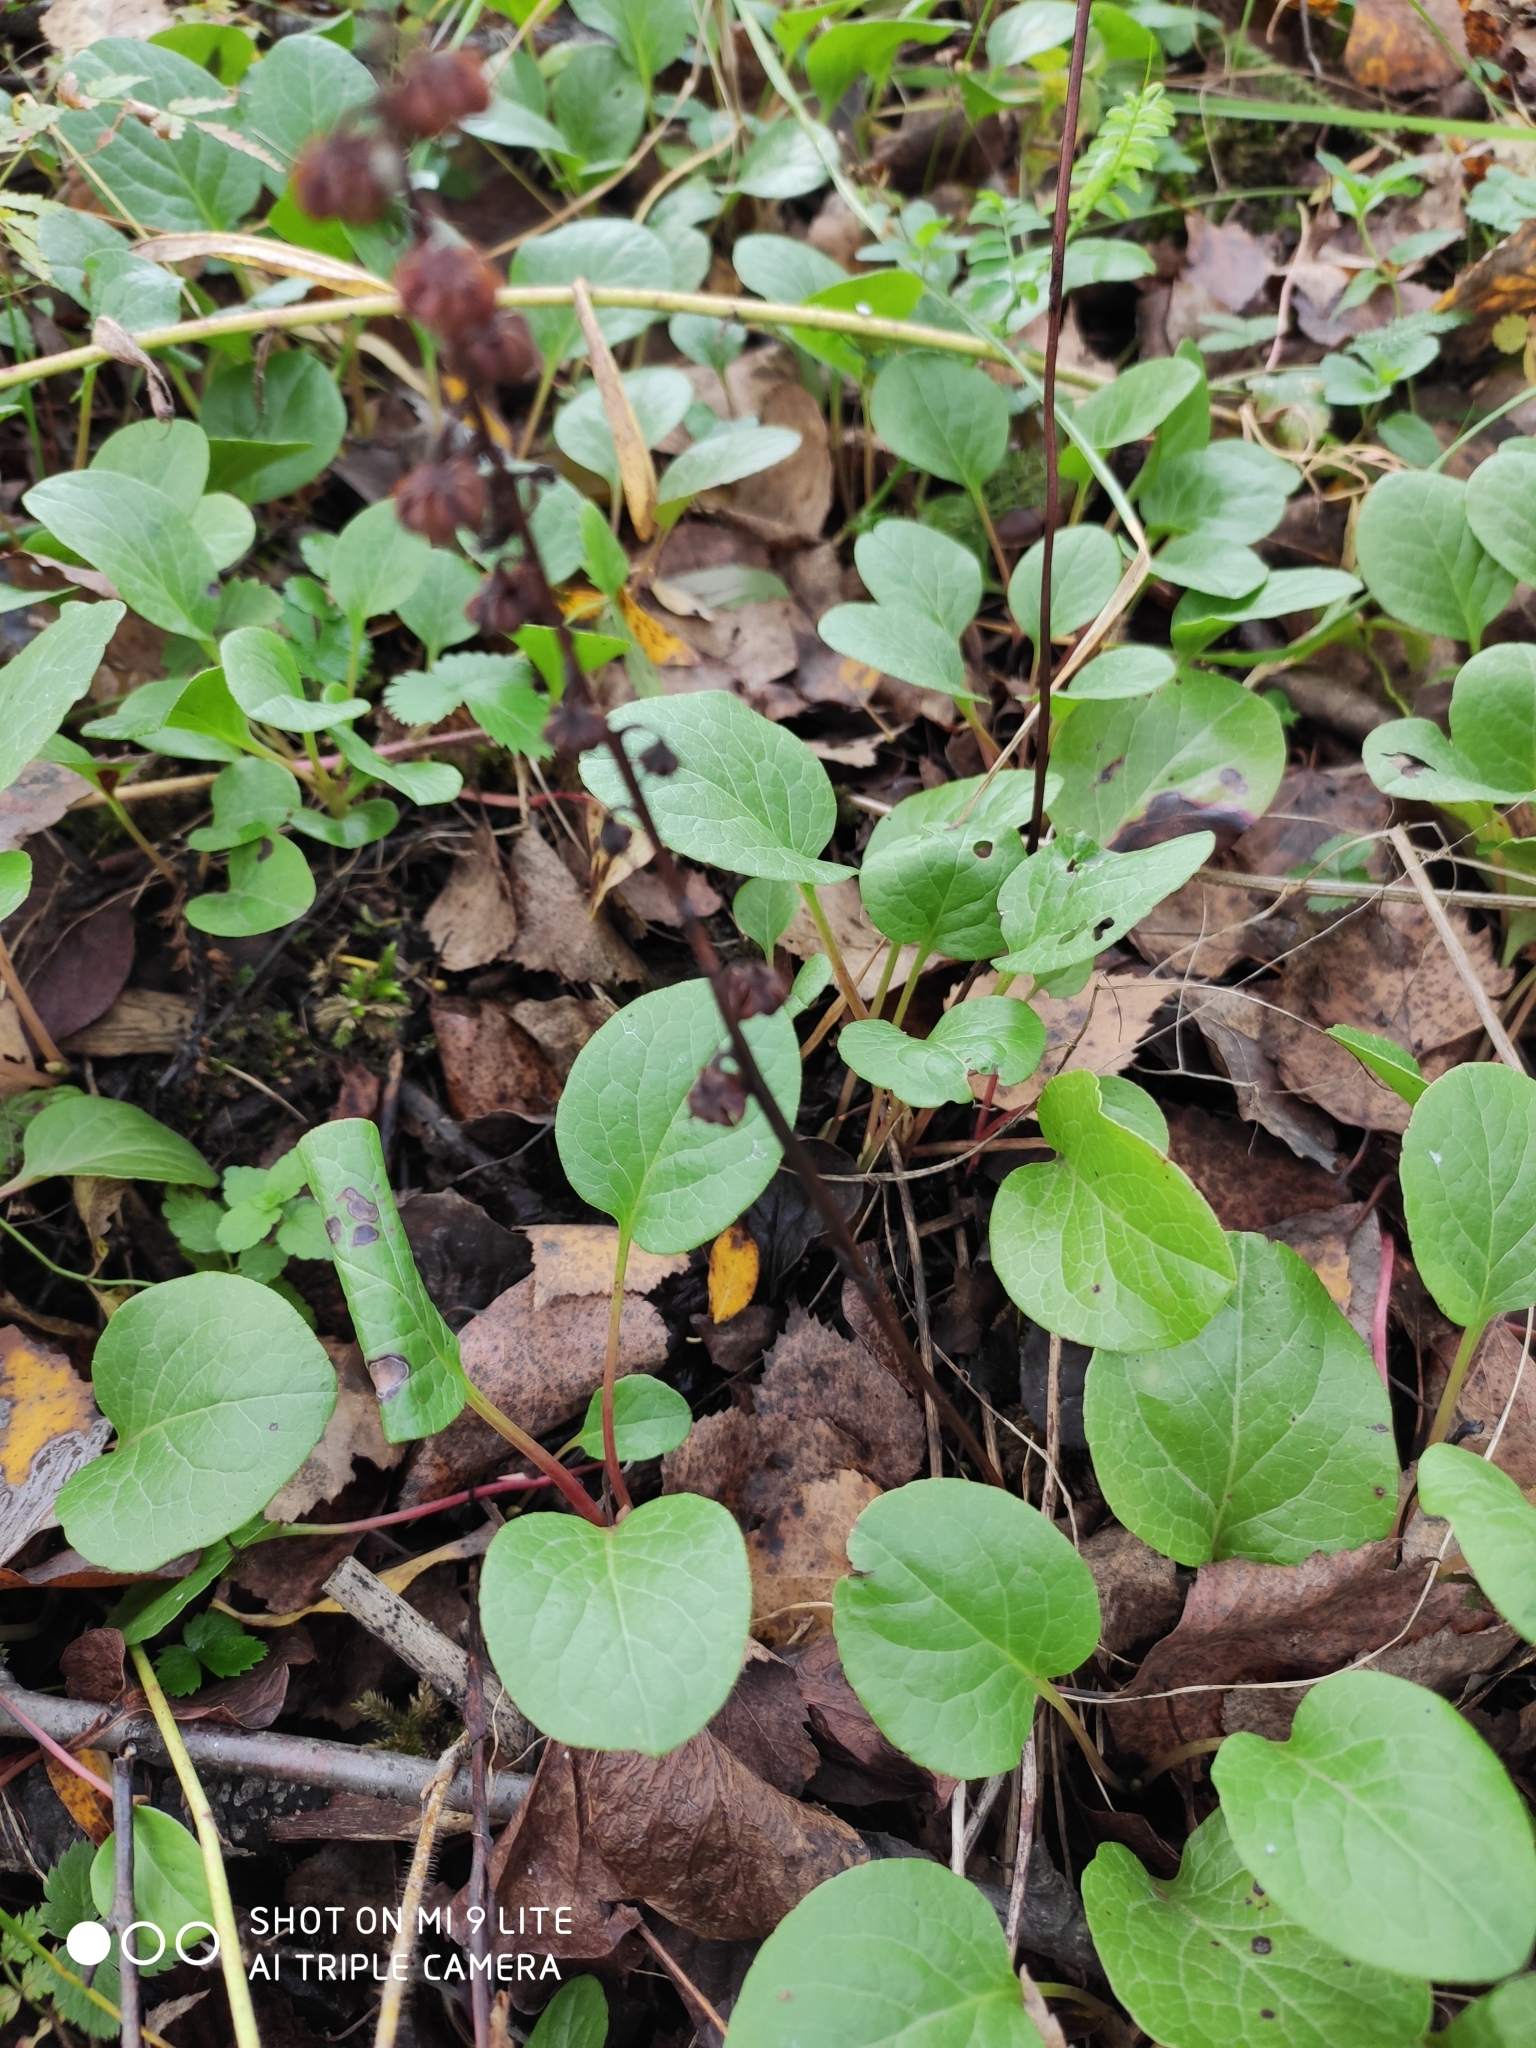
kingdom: Plantae
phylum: Tracheophyta
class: Magnoliopsida
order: Ericales
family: Ericaceae
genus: Pyrola
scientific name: Pyrola rotundifolia
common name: Round-leaved wintergreen
